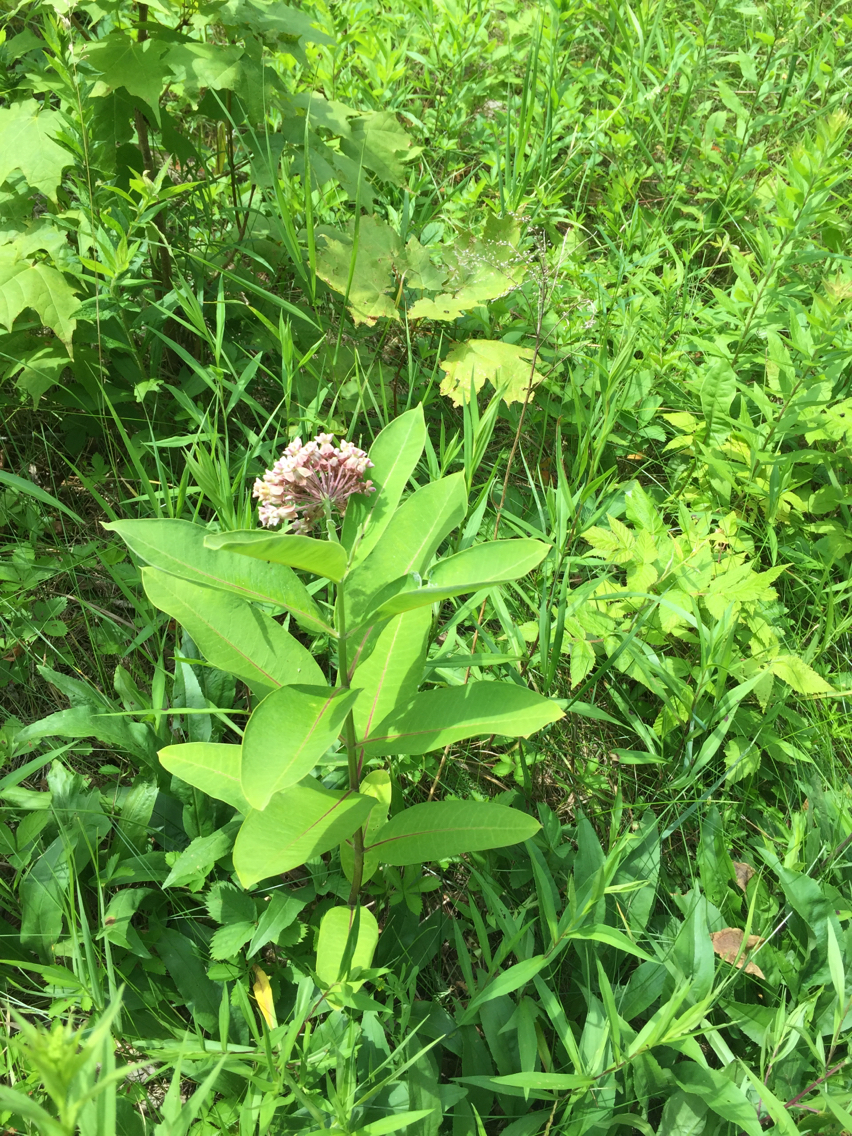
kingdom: Plantae
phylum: Tracheophyta
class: Magnoliopsida
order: Gentianales
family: Apocynaceae
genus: Asclepias
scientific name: Asclepias syriaca
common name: Common milkweed
